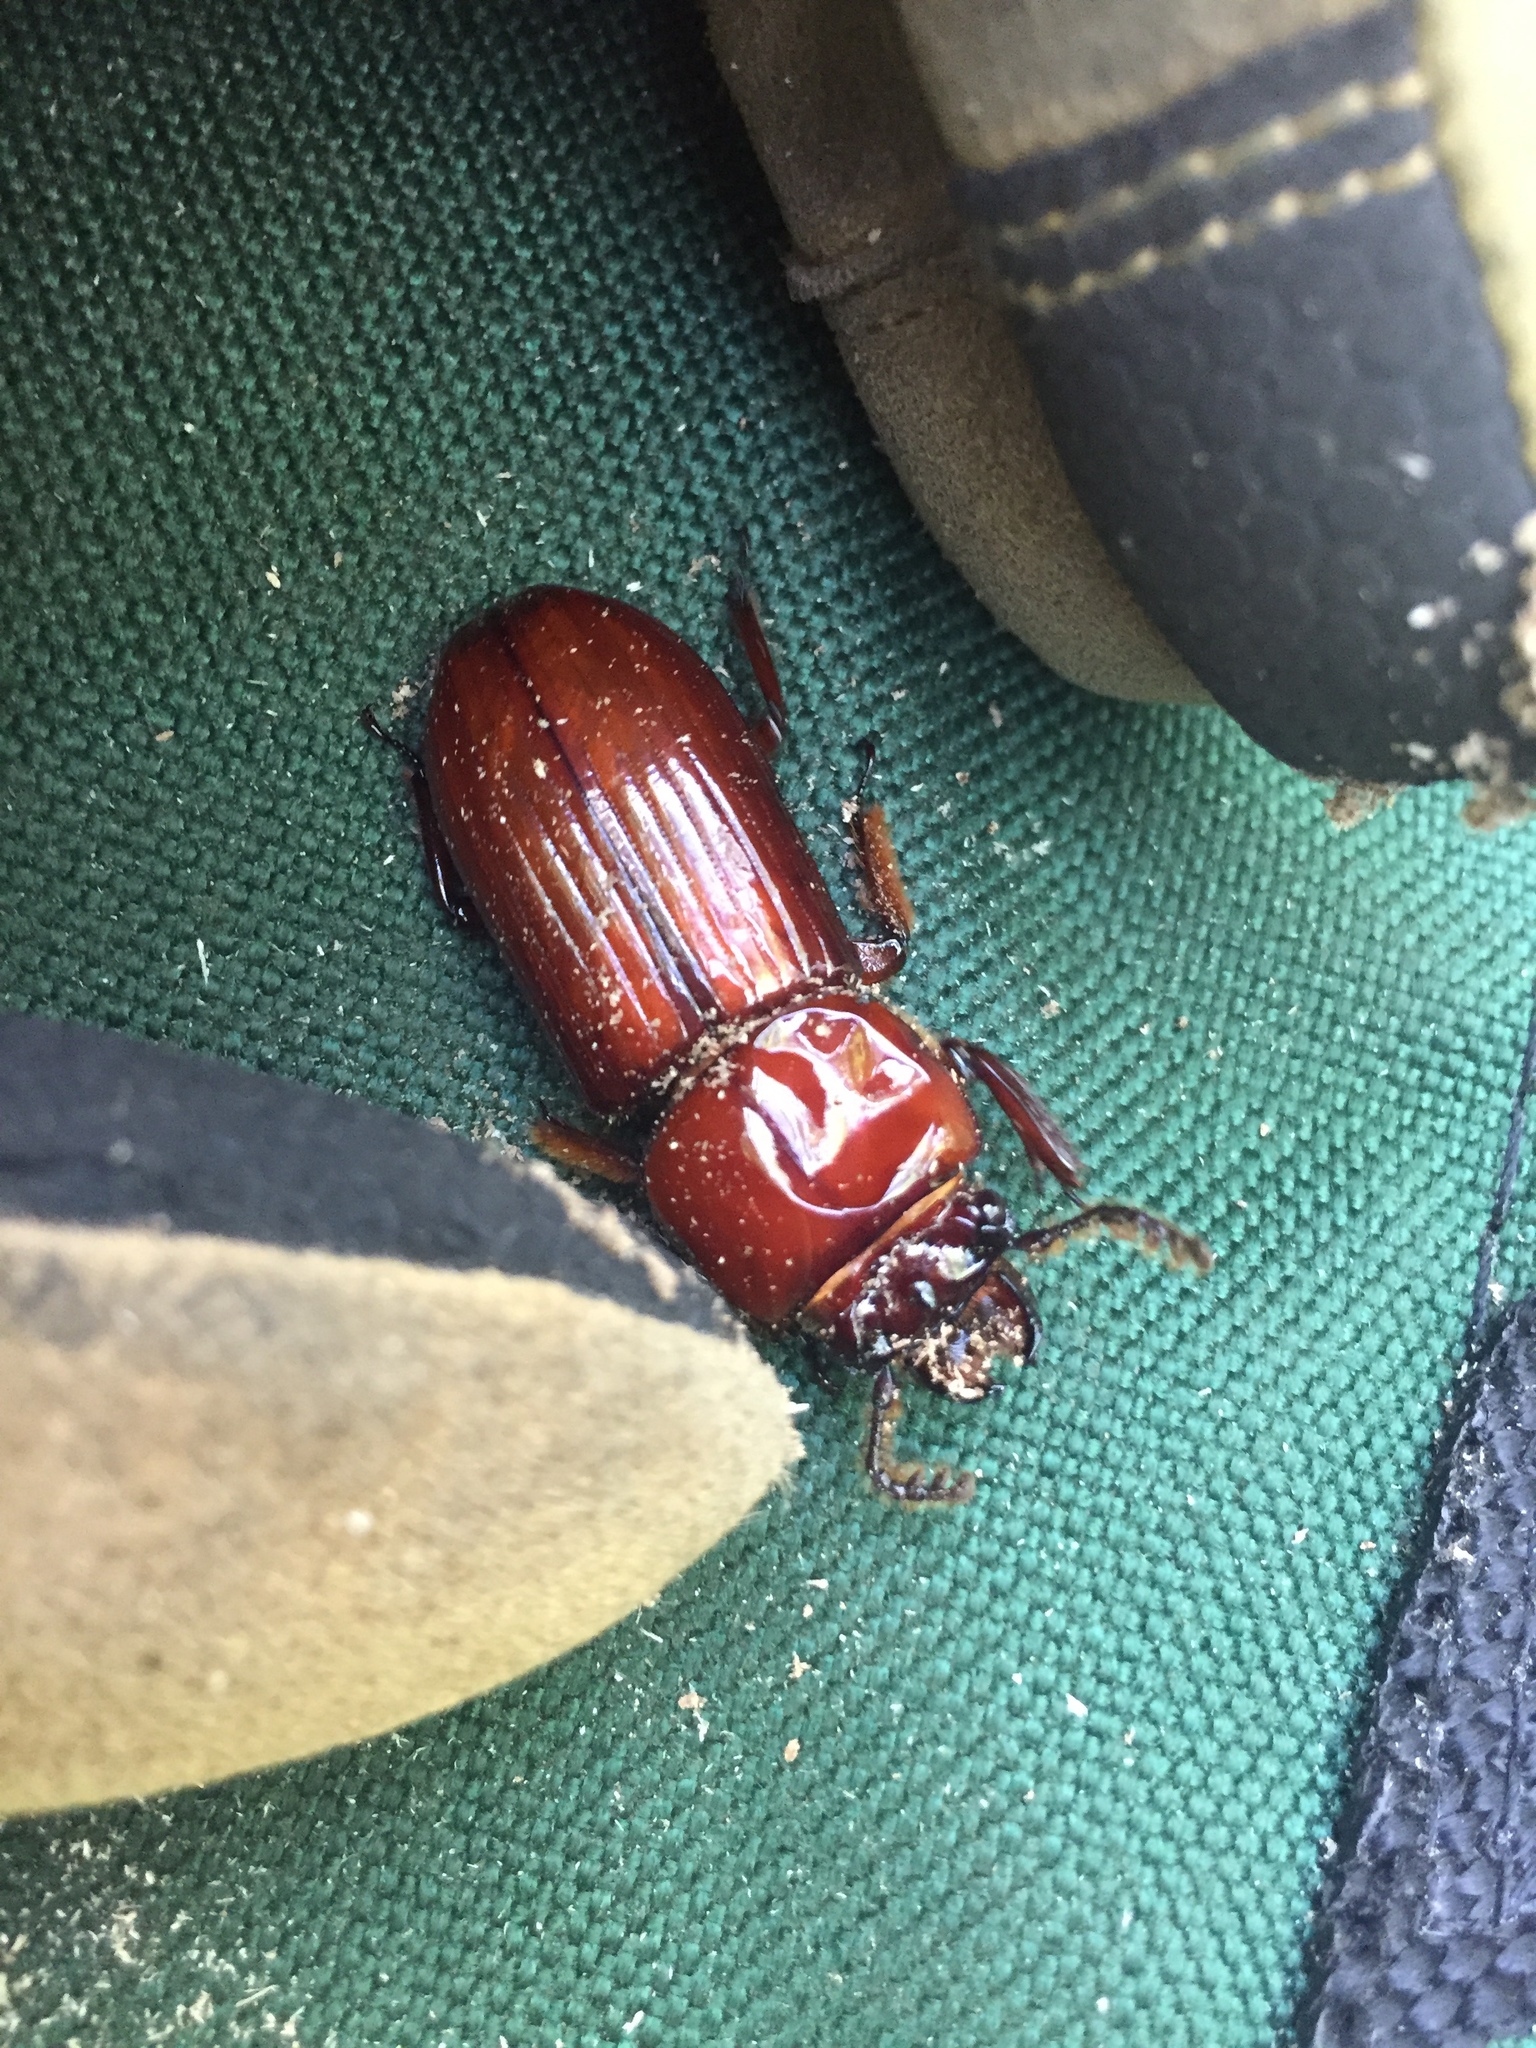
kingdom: Animalia
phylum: Arthropoda
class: Insecta
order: Coleoptera
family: Passalidae
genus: Odontotaenius
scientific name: Odontotaenius disjunctus
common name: Patent leather beetle
